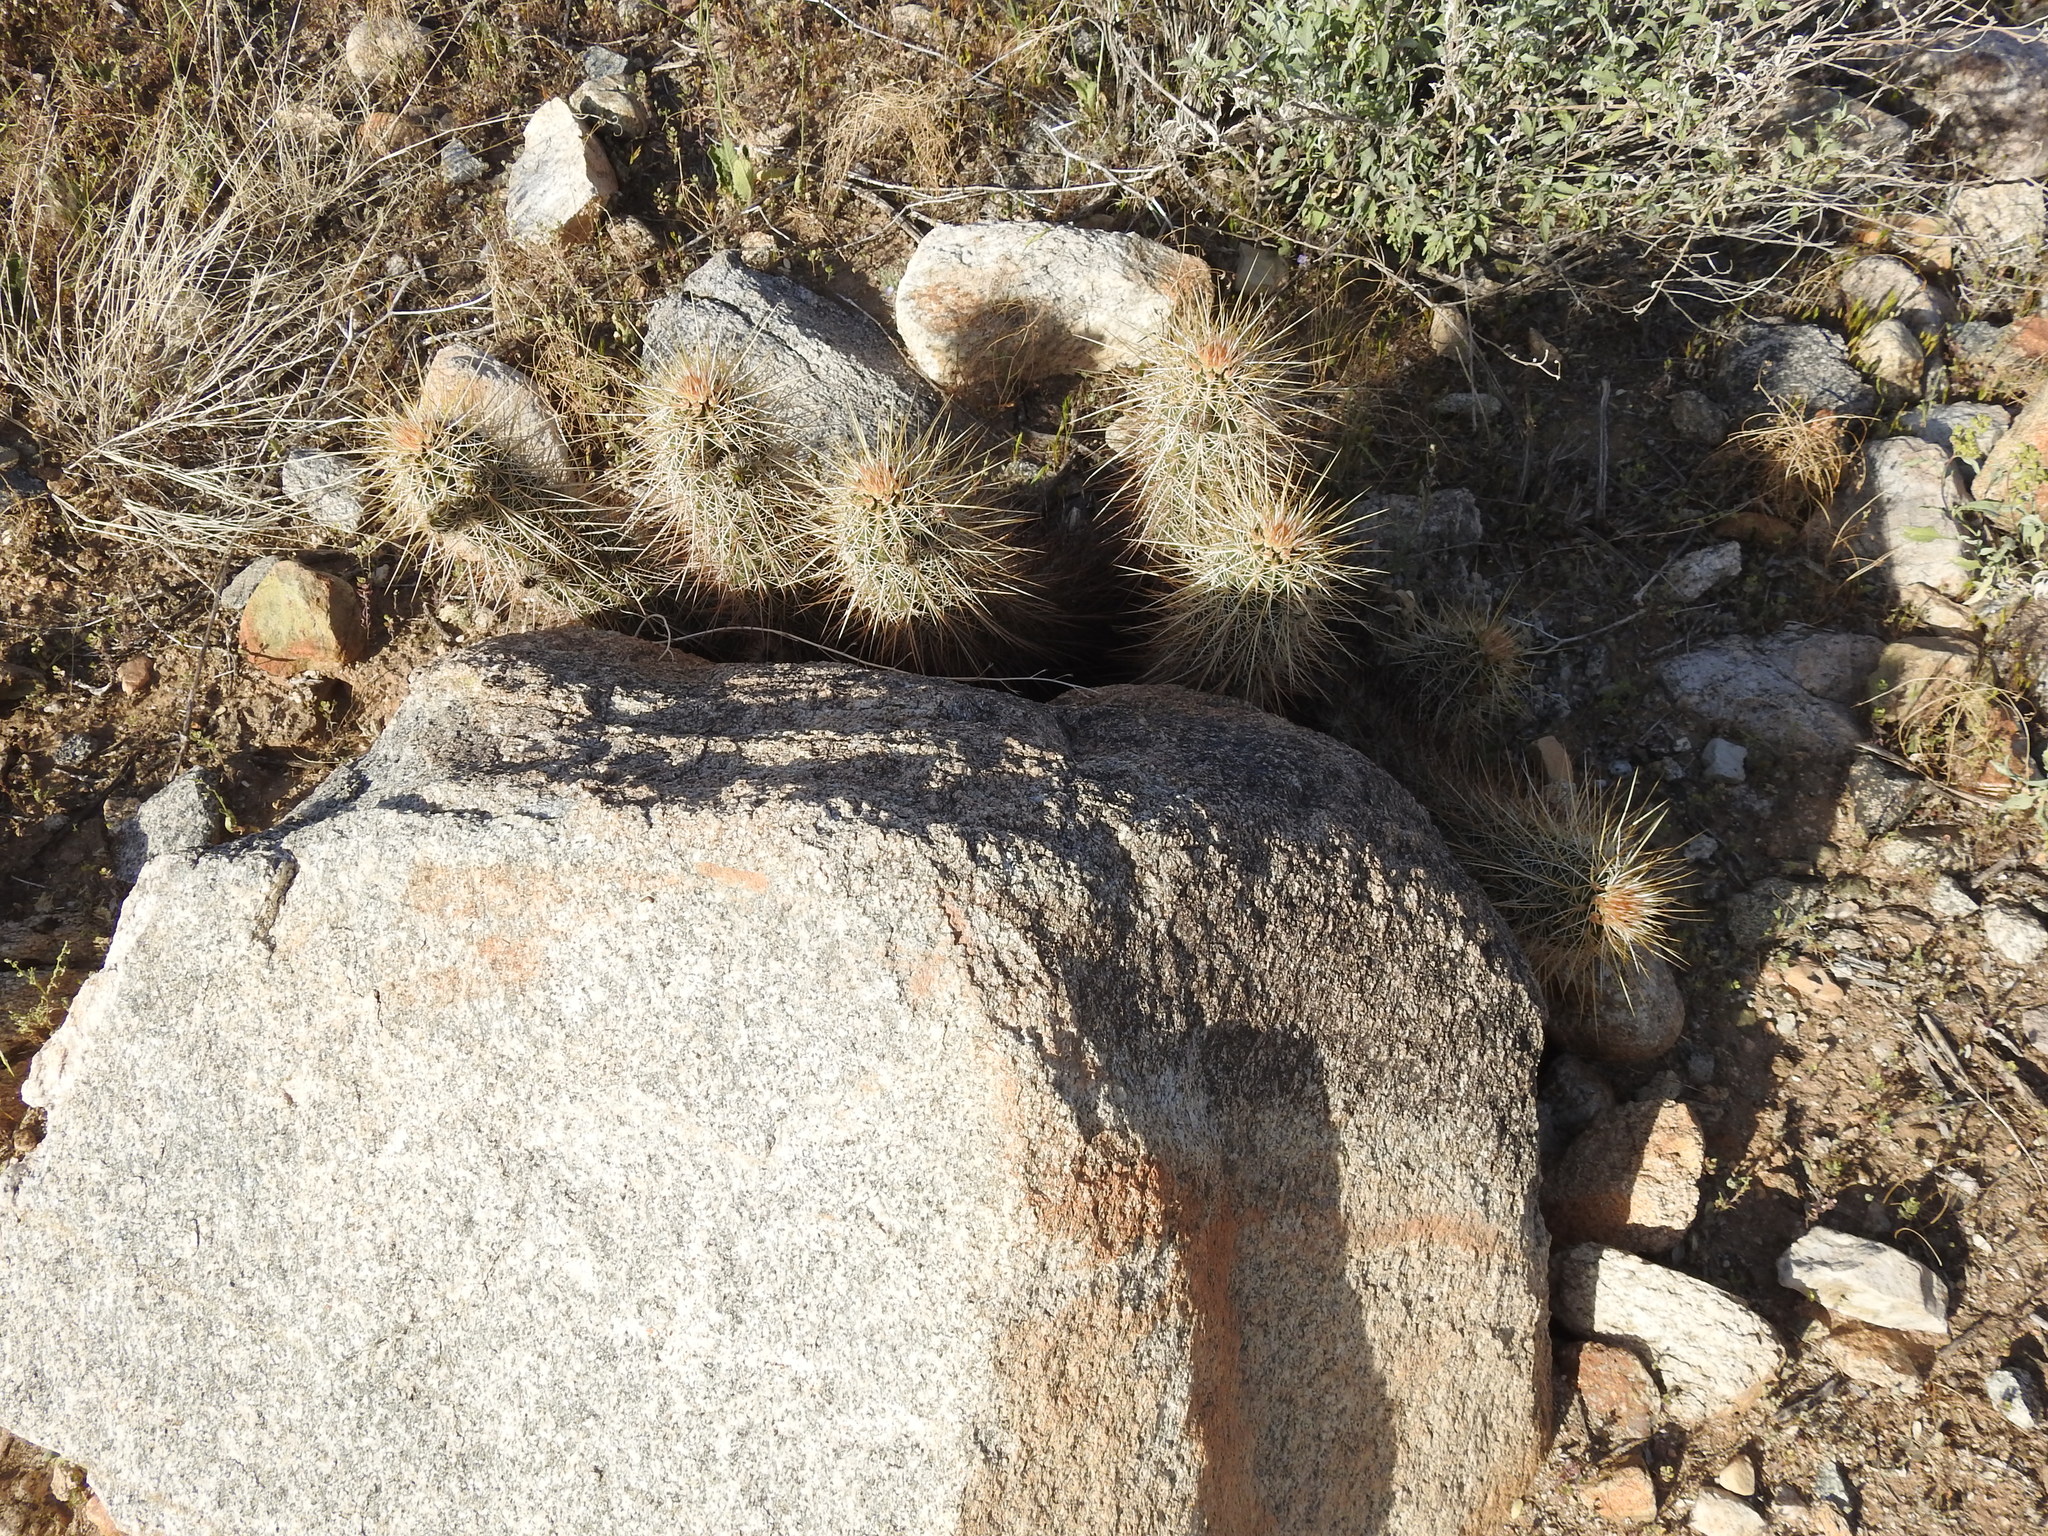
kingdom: Plantae
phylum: Tracheophyta
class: Magnoliopsida
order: Caryophyllales
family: Cactaceae
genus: Echinocereus
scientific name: Echinocereus engelmannii
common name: Engelmann's hedgehog cactus
